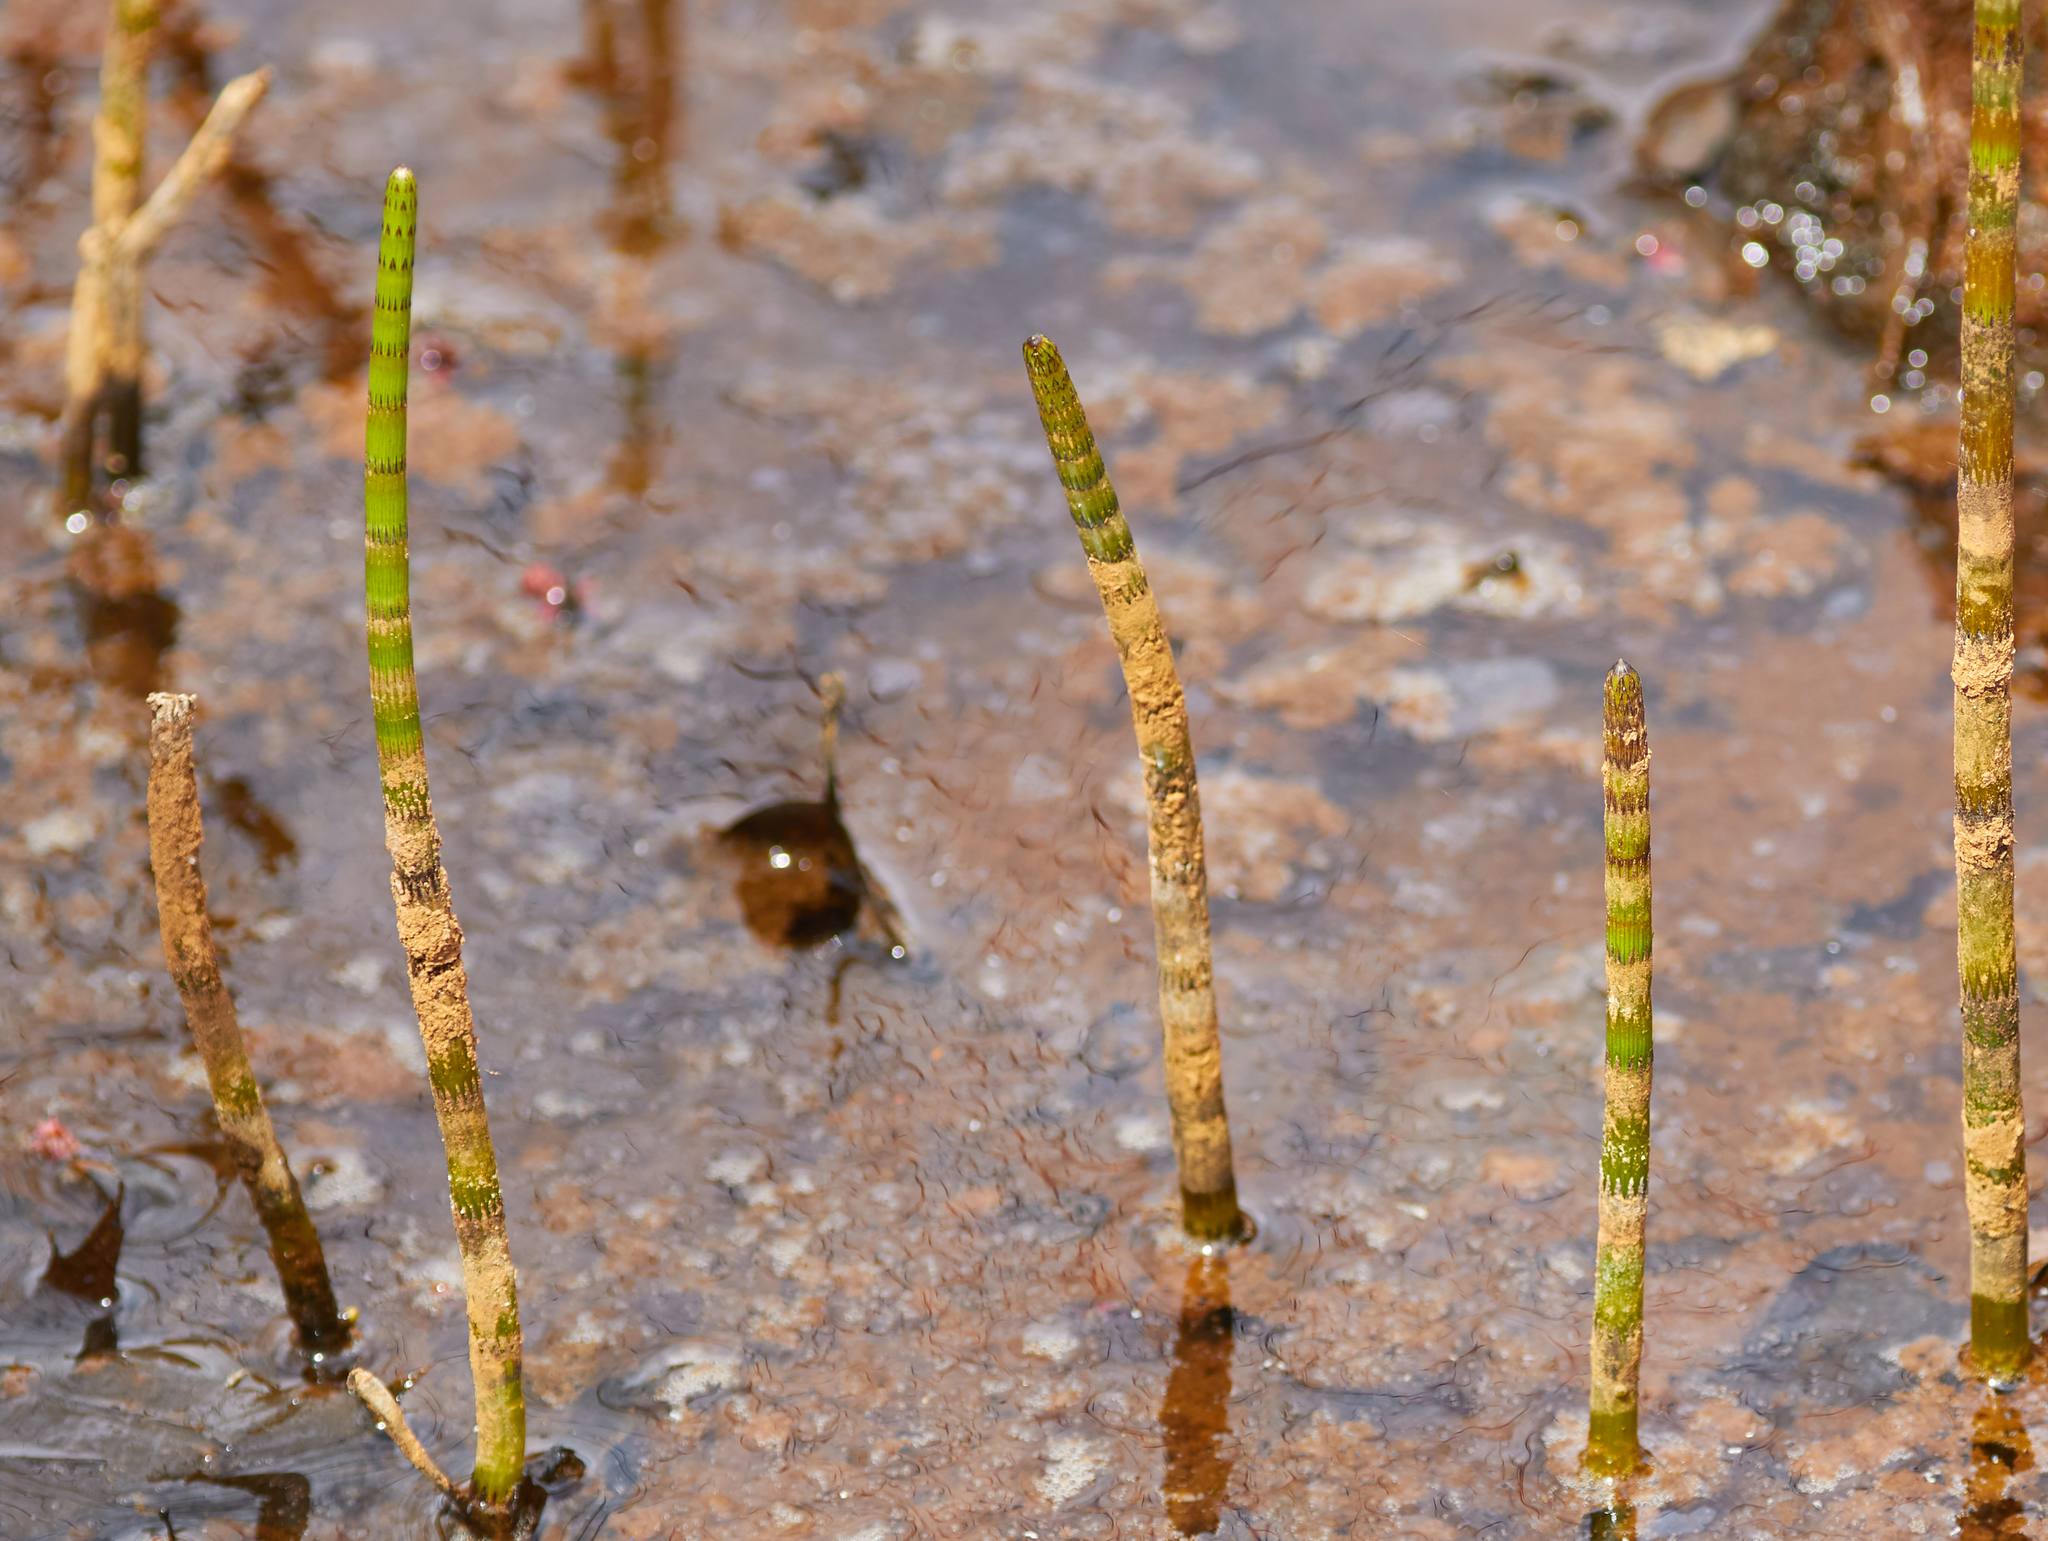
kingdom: Plantae
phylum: Tracheophyta
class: Polypodiopsida
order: Equisetales
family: Equisetaceae
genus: Equisetum
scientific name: Equisetum fluviatile
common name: Water horsetail
